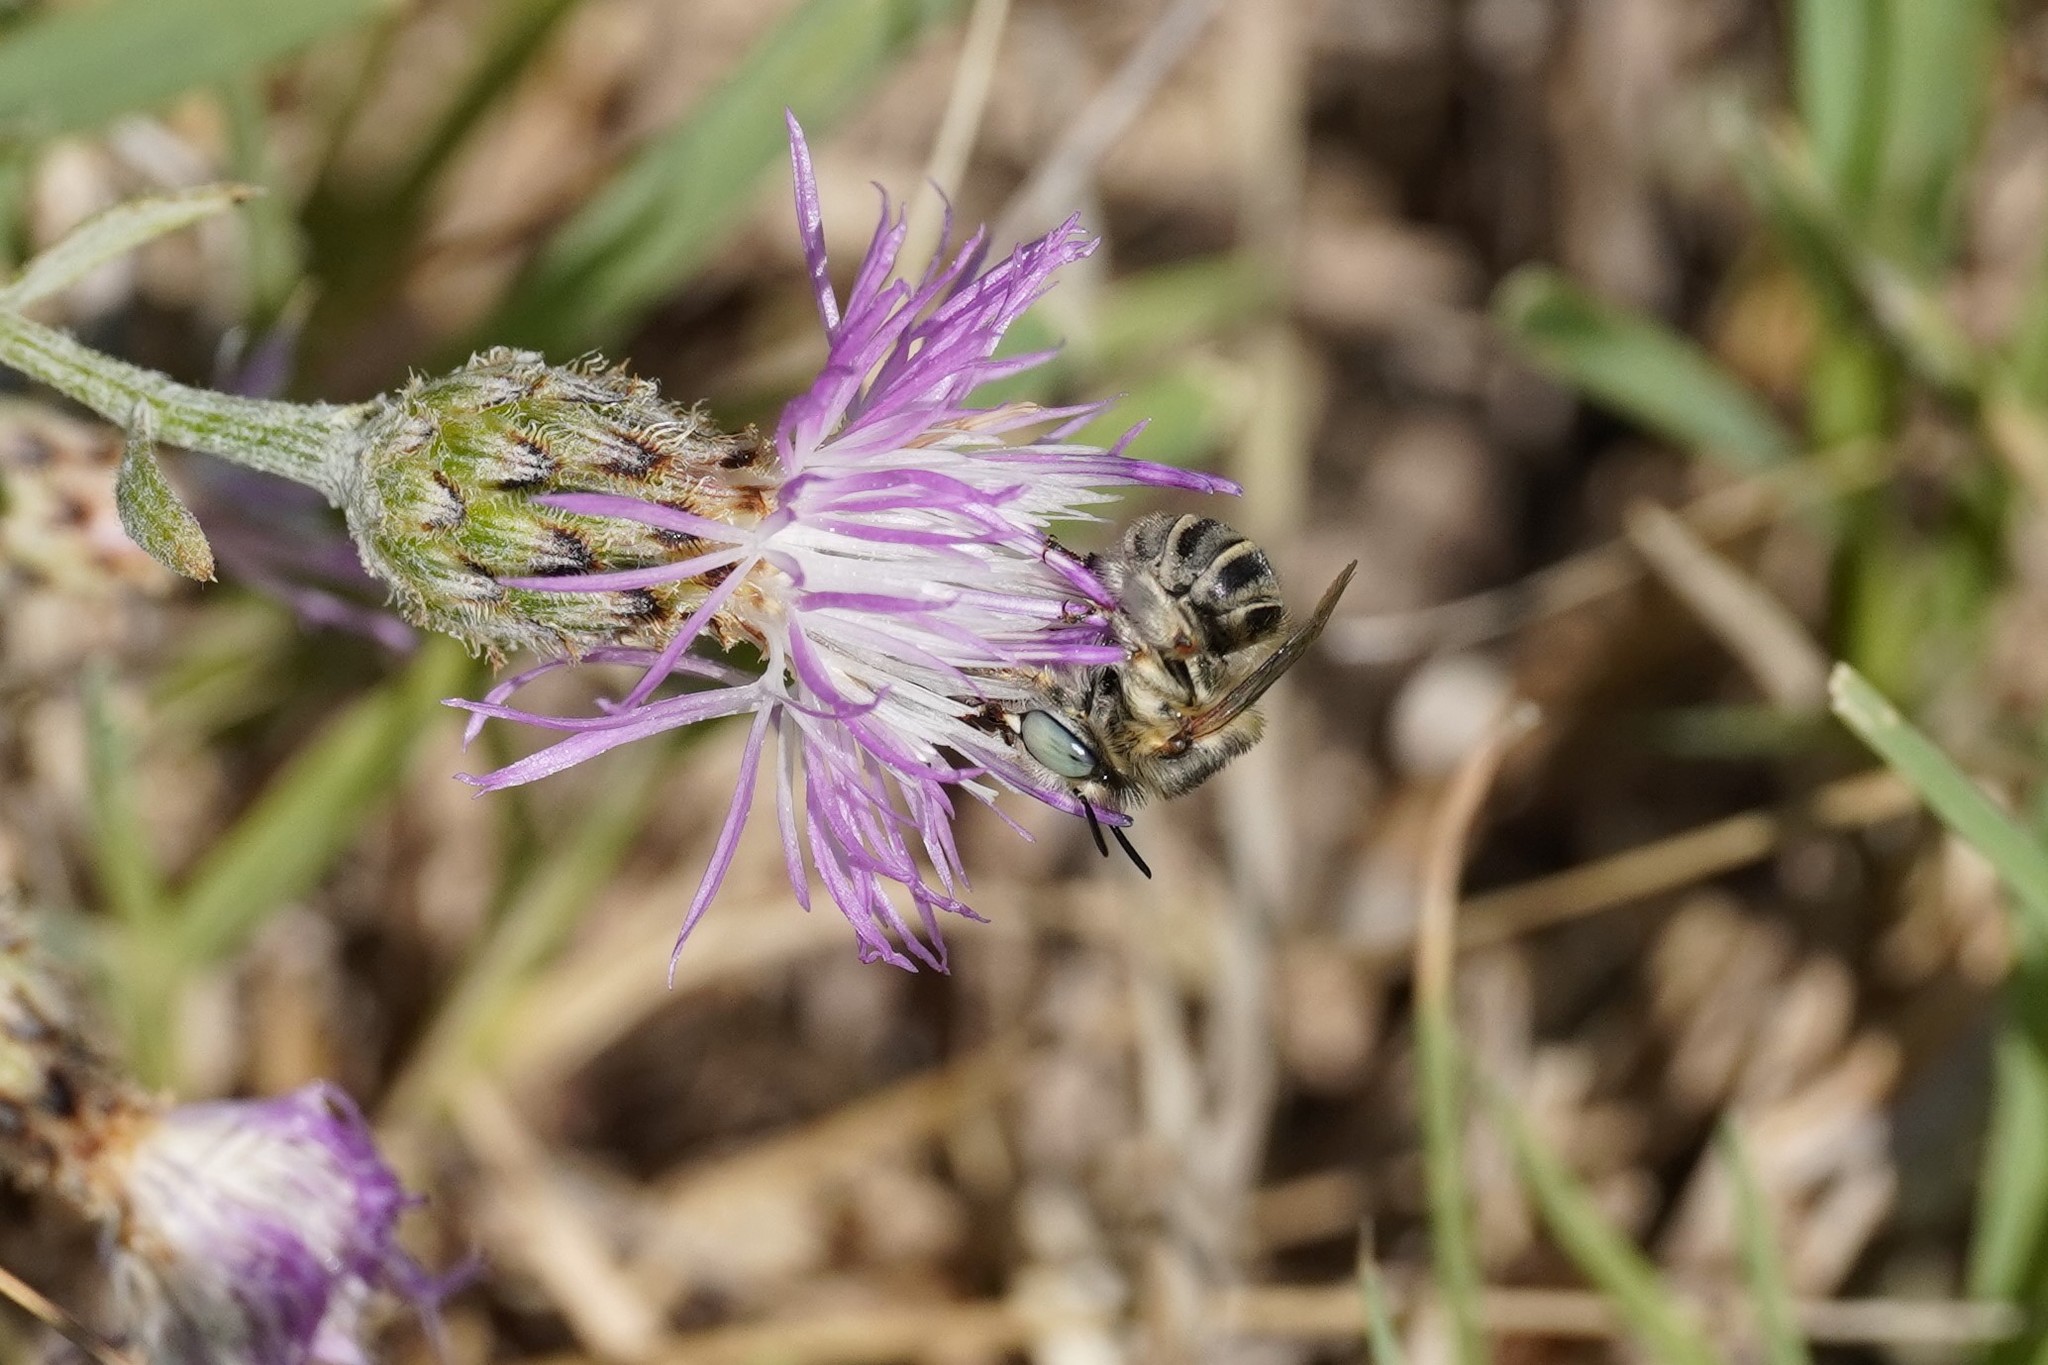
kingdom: Animalia
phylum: Arthropoda
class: Insecta
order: Hymenoptera
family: Apidae
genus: Anthophora
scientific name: Anthophora bimaculata
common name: Green-eyed flower bee
